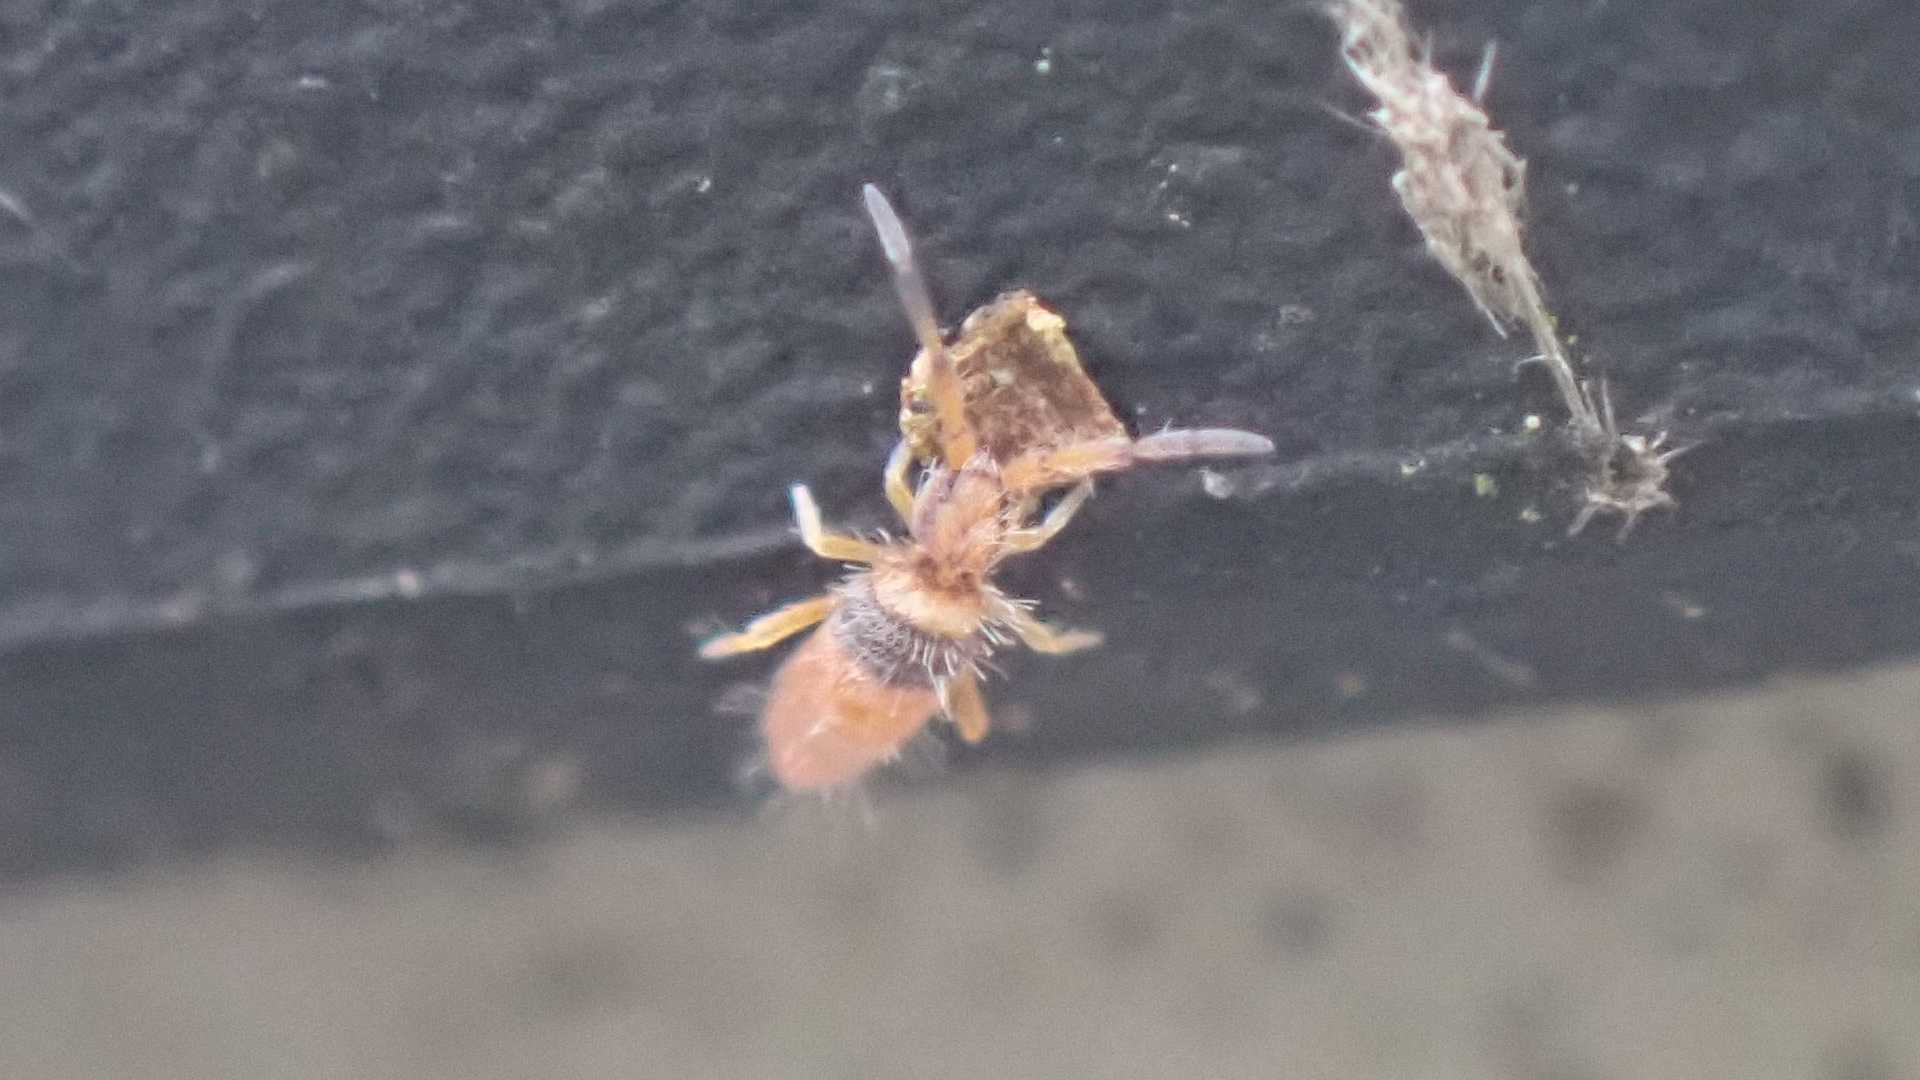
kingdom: Animalia
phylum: Arthropoda
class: Collembola
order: Entomobryomorpha
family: Entomobryidae
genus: Entomobrya
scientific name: Entomobrya nigrocincta
